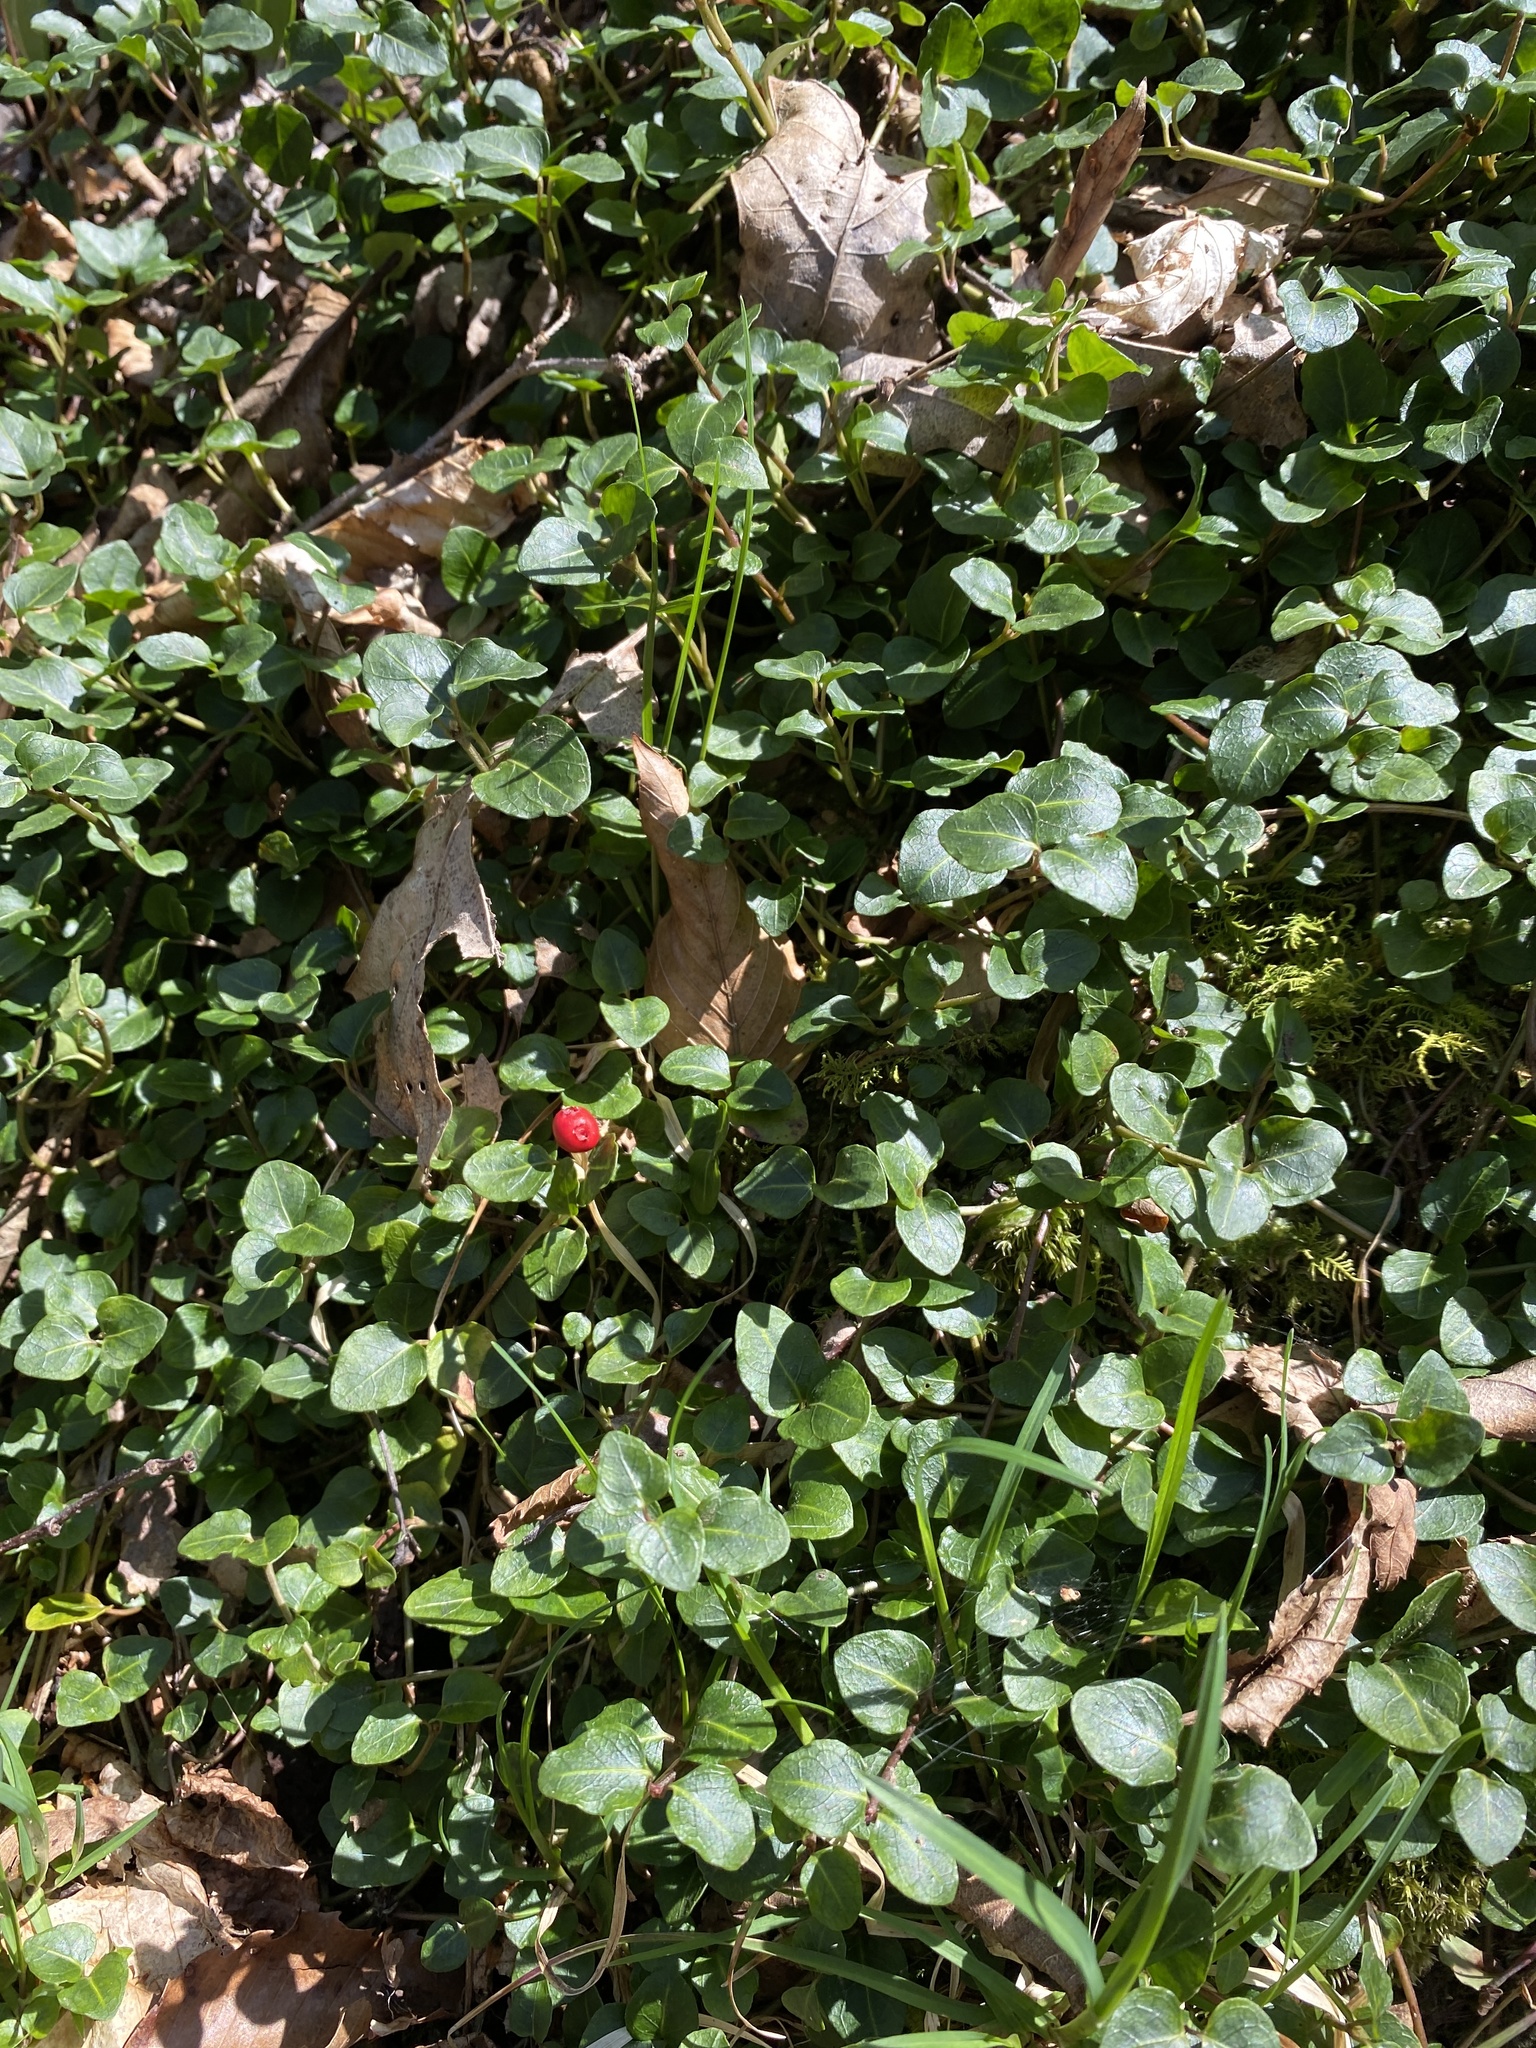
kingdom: Plantae
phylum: Tracheophyta
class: Magnoliopsida
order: Gentianales
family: Rubiaceae
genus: Mitchella
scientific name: Mitchella repens
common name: Partridge-berry
